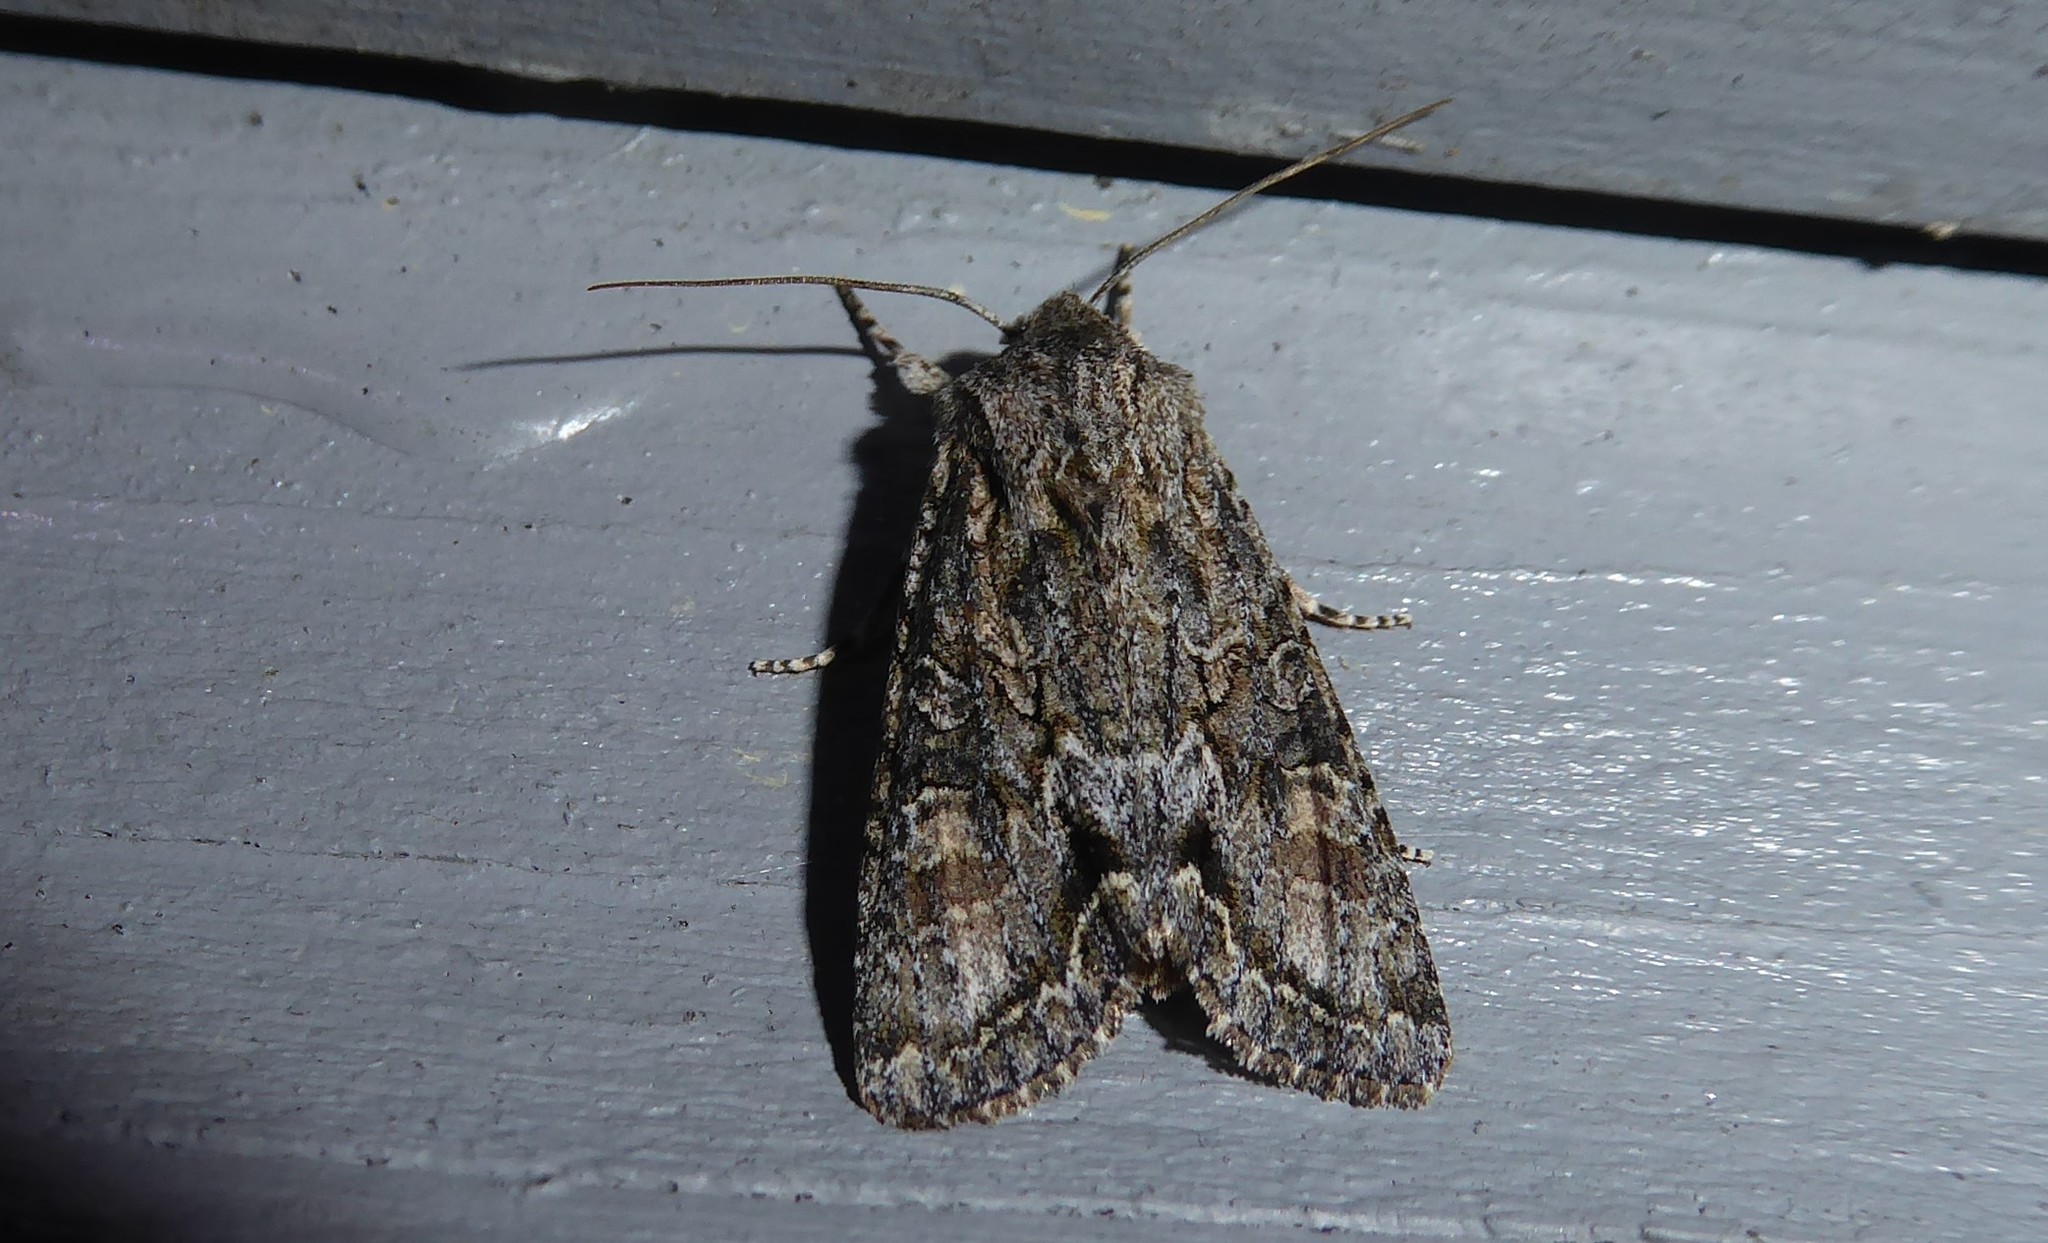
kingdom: Animalia
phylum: Arthropoda
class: Insecta
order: Lepidoptera
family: Noctuidae
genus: Ichneutica
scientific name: Ichneutica mutans
